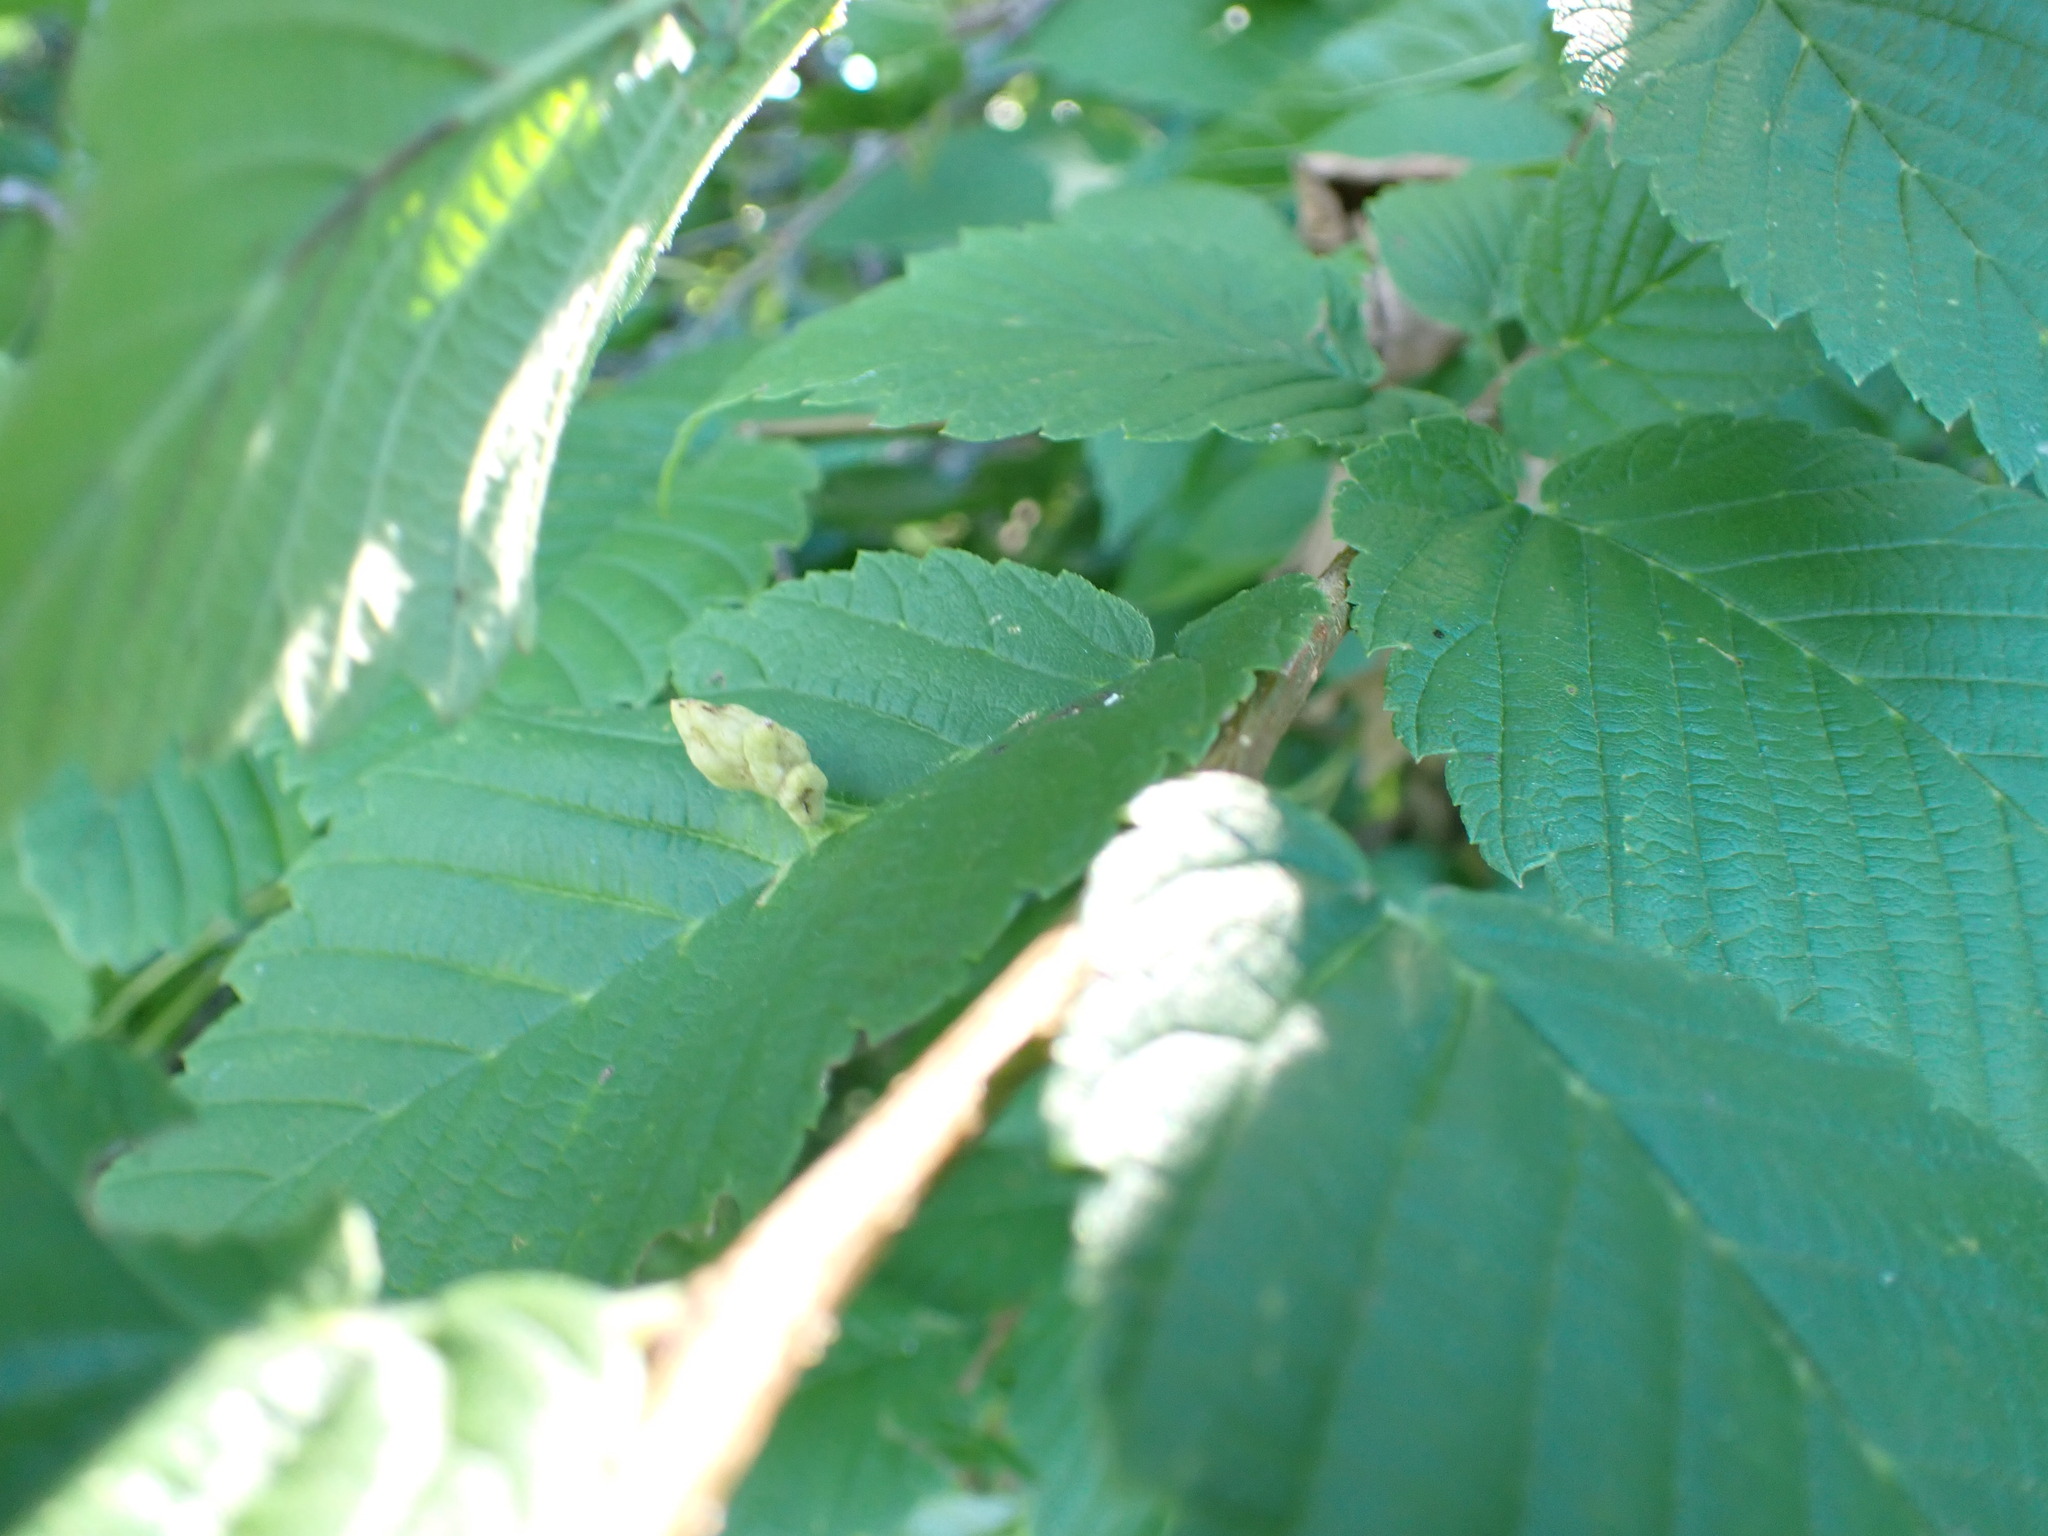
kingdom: Animalia
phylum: Arthropoda
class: Insecta
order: Hemiptera
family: Aphididae
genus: Colopha
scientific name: Colopha ulmicola
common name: Elm cockscombgall aphid
